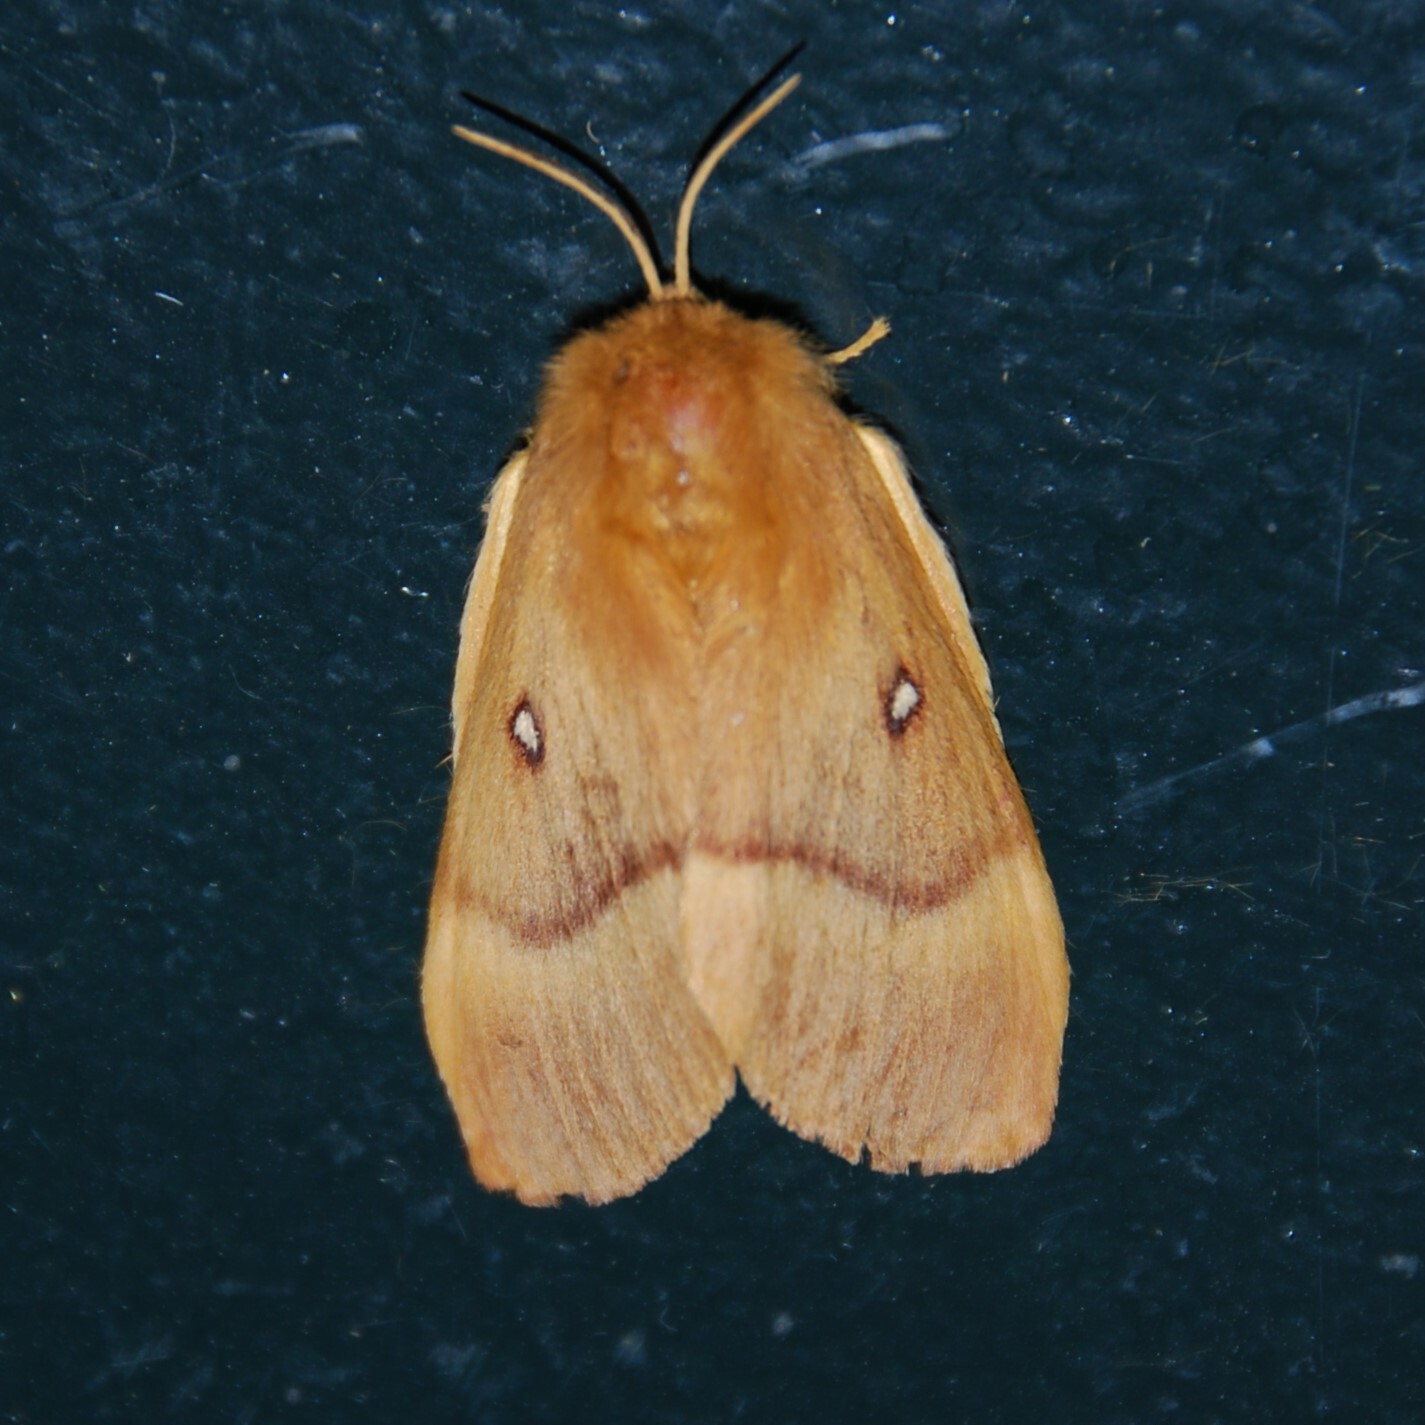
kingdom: Animalia
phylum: Arthropoda
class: Insecta
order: Lepidoptera
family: Lasiocampidae
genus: Lasiocampa
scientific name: Lasiocampa quercus
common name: Oak eggar
